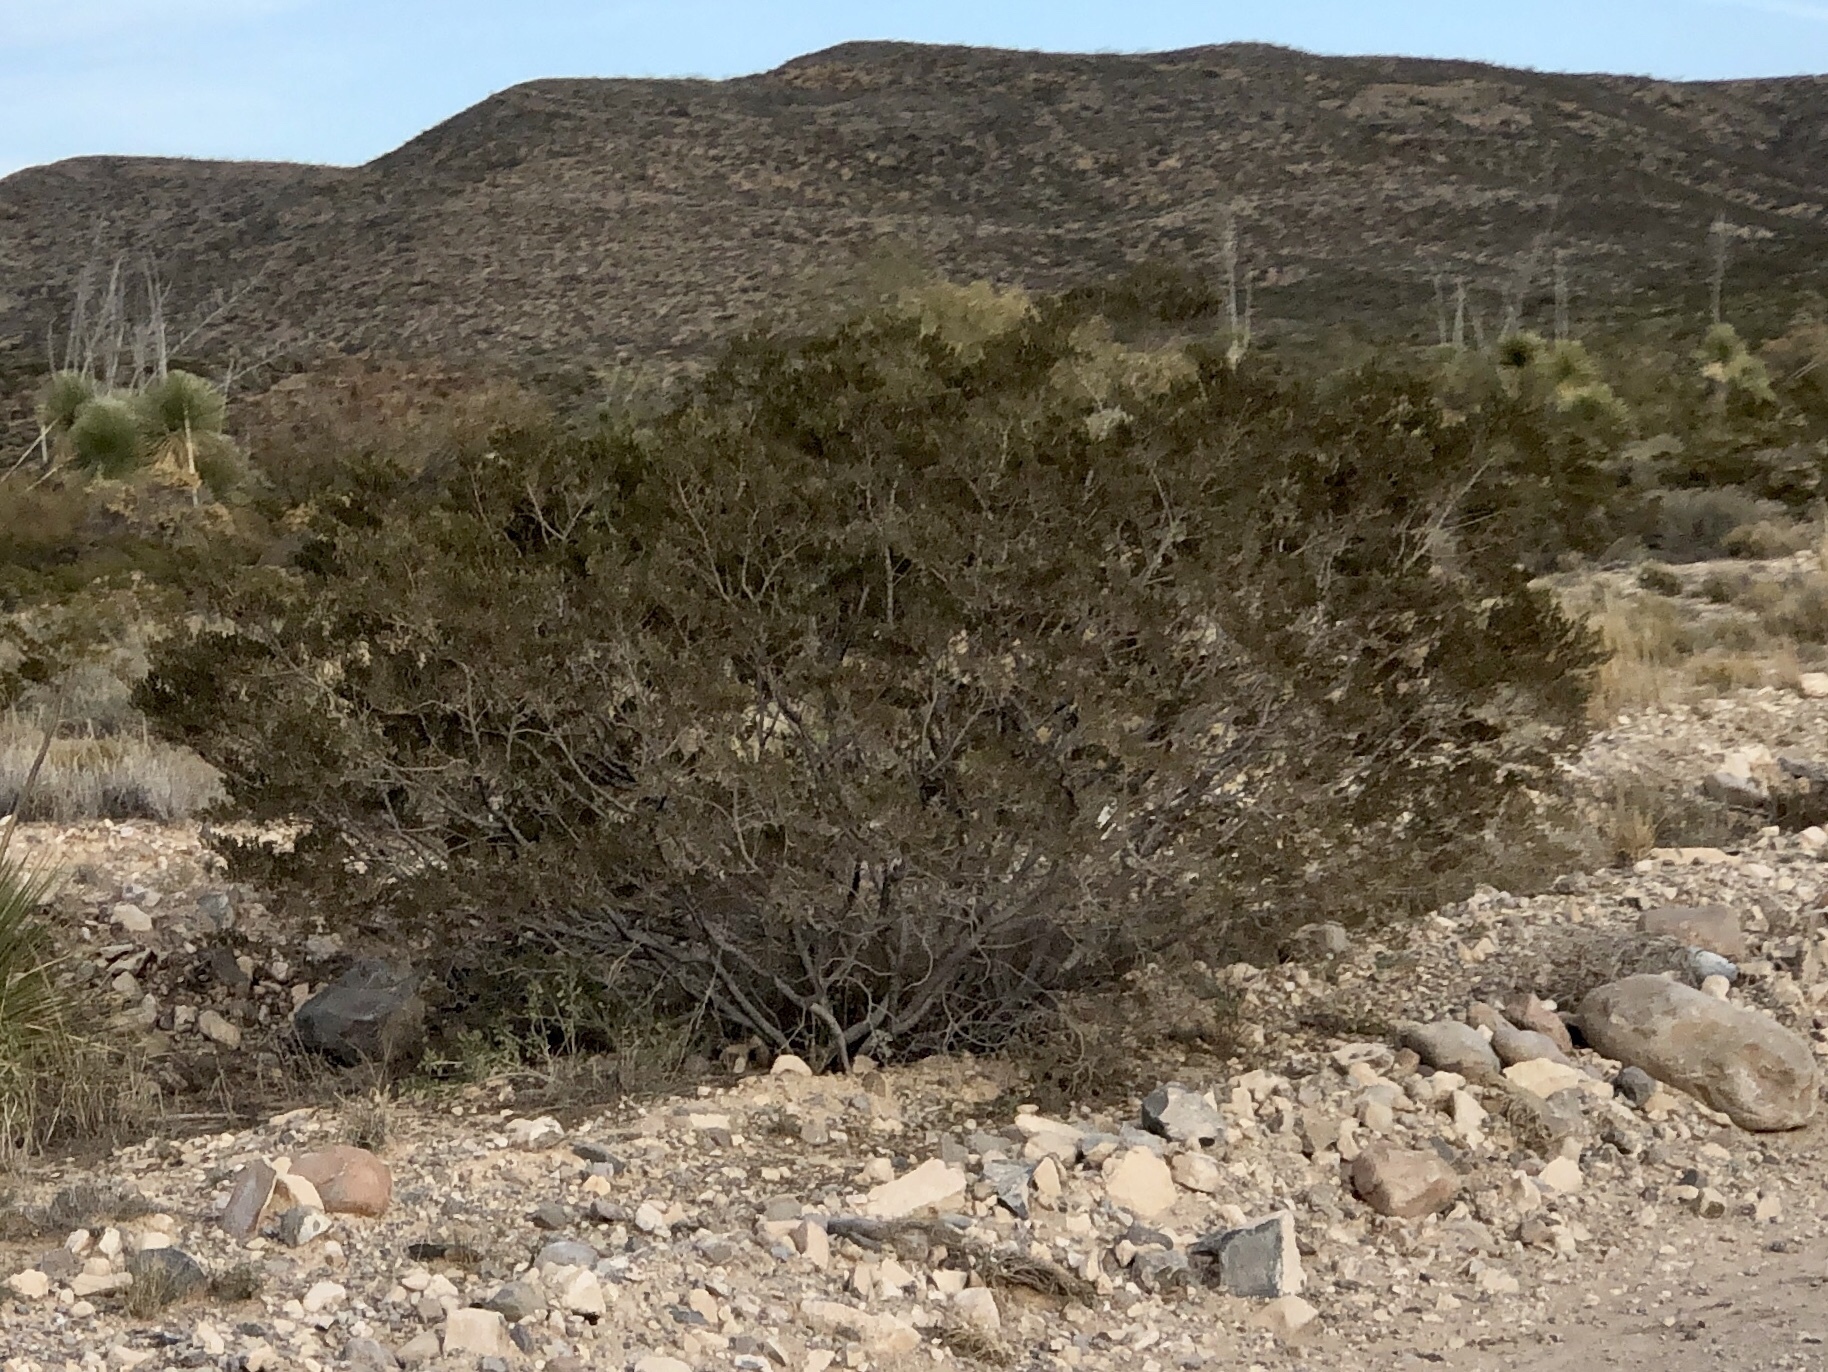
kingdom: Plantae
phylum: Tracheophyta
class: Magnoliopsida
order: Zygophyllales
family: Zygophyllaceae
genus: Larrea
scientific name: Larrea tridentata
